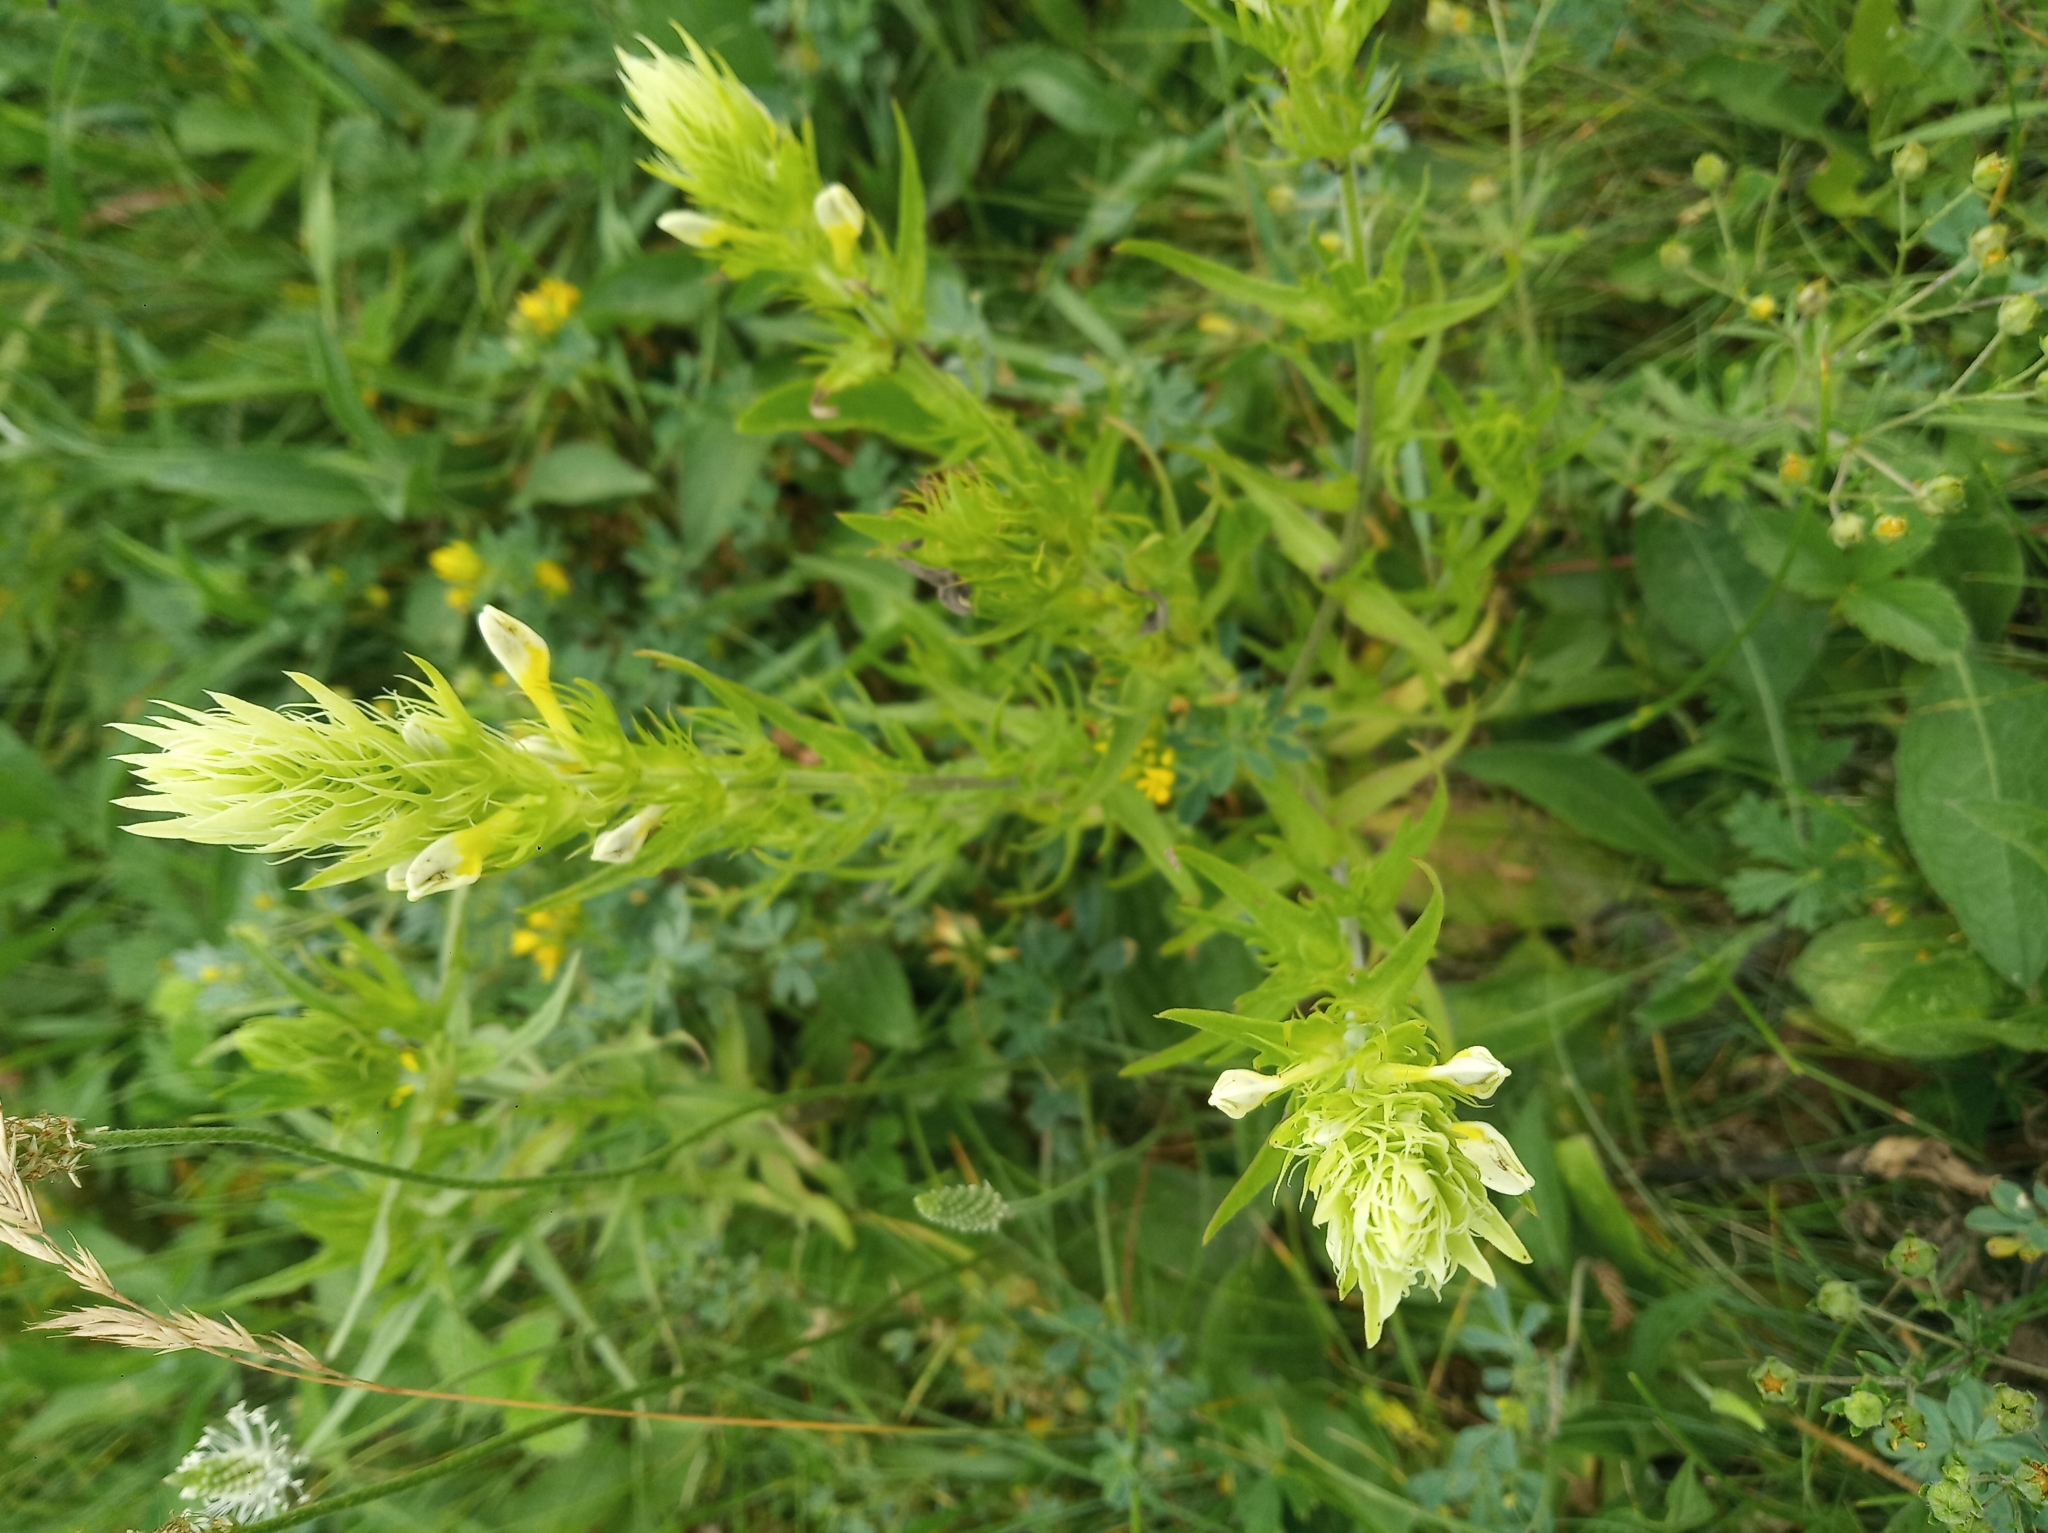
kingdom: Plantae
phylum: Tracheophyta
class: Magnoliopsida
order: Lamiales
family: Orobanchaceae
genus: Melampyrum
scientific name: Melampyrum arvense
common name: Field cow-wheat
